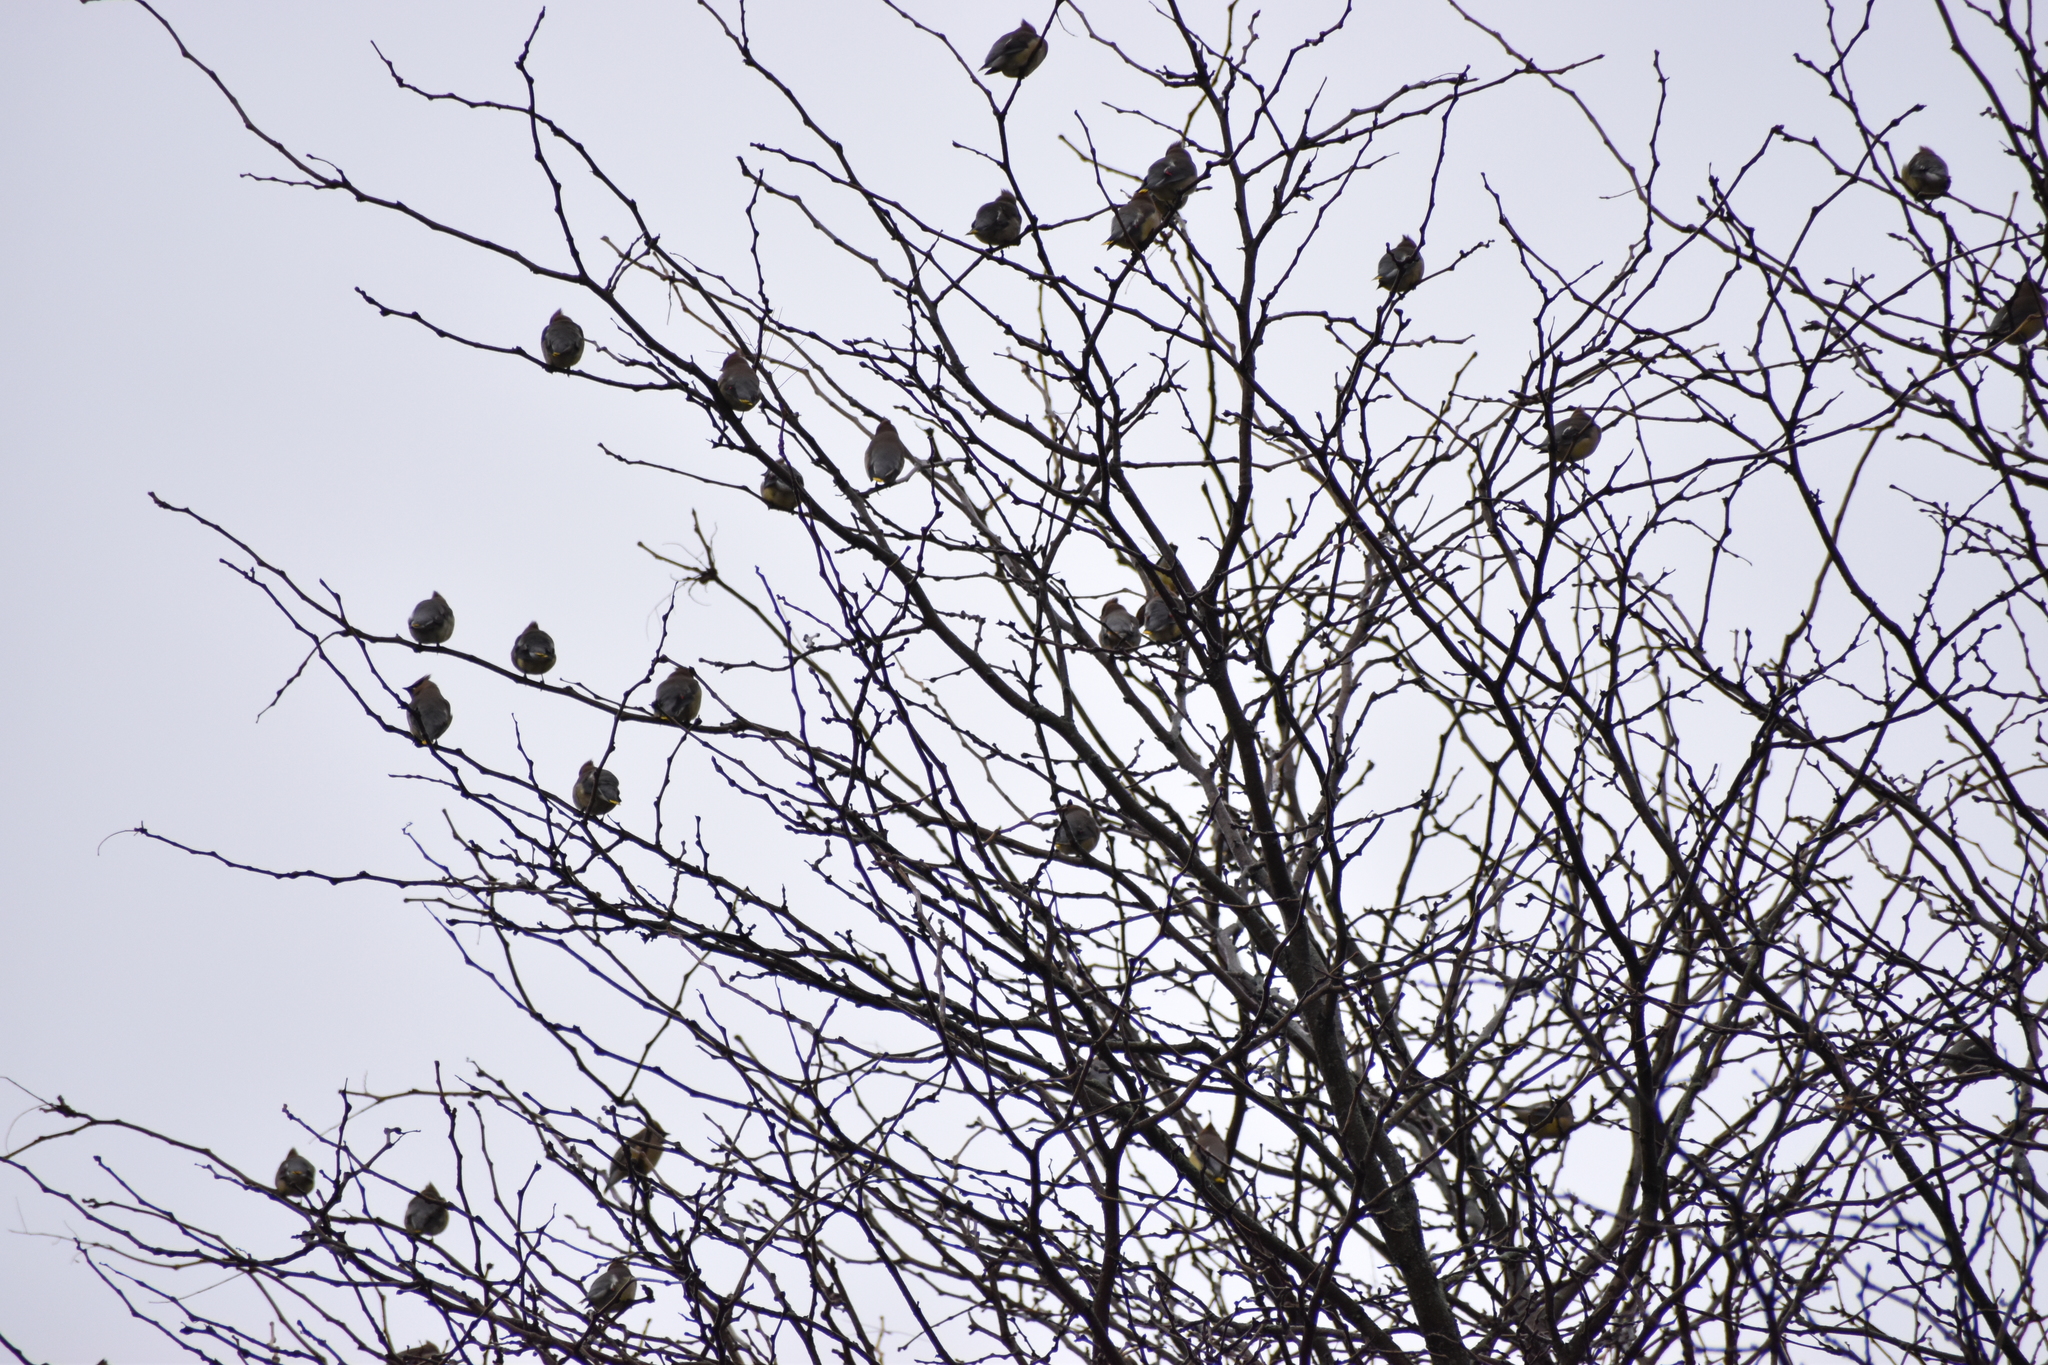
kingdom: Animalia
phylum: Chordata
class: Aves
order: Passeriformes
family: Bombycillidae
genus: Bombycilla
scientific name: Bombycilla cedrorum
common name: Cedar waxwing
